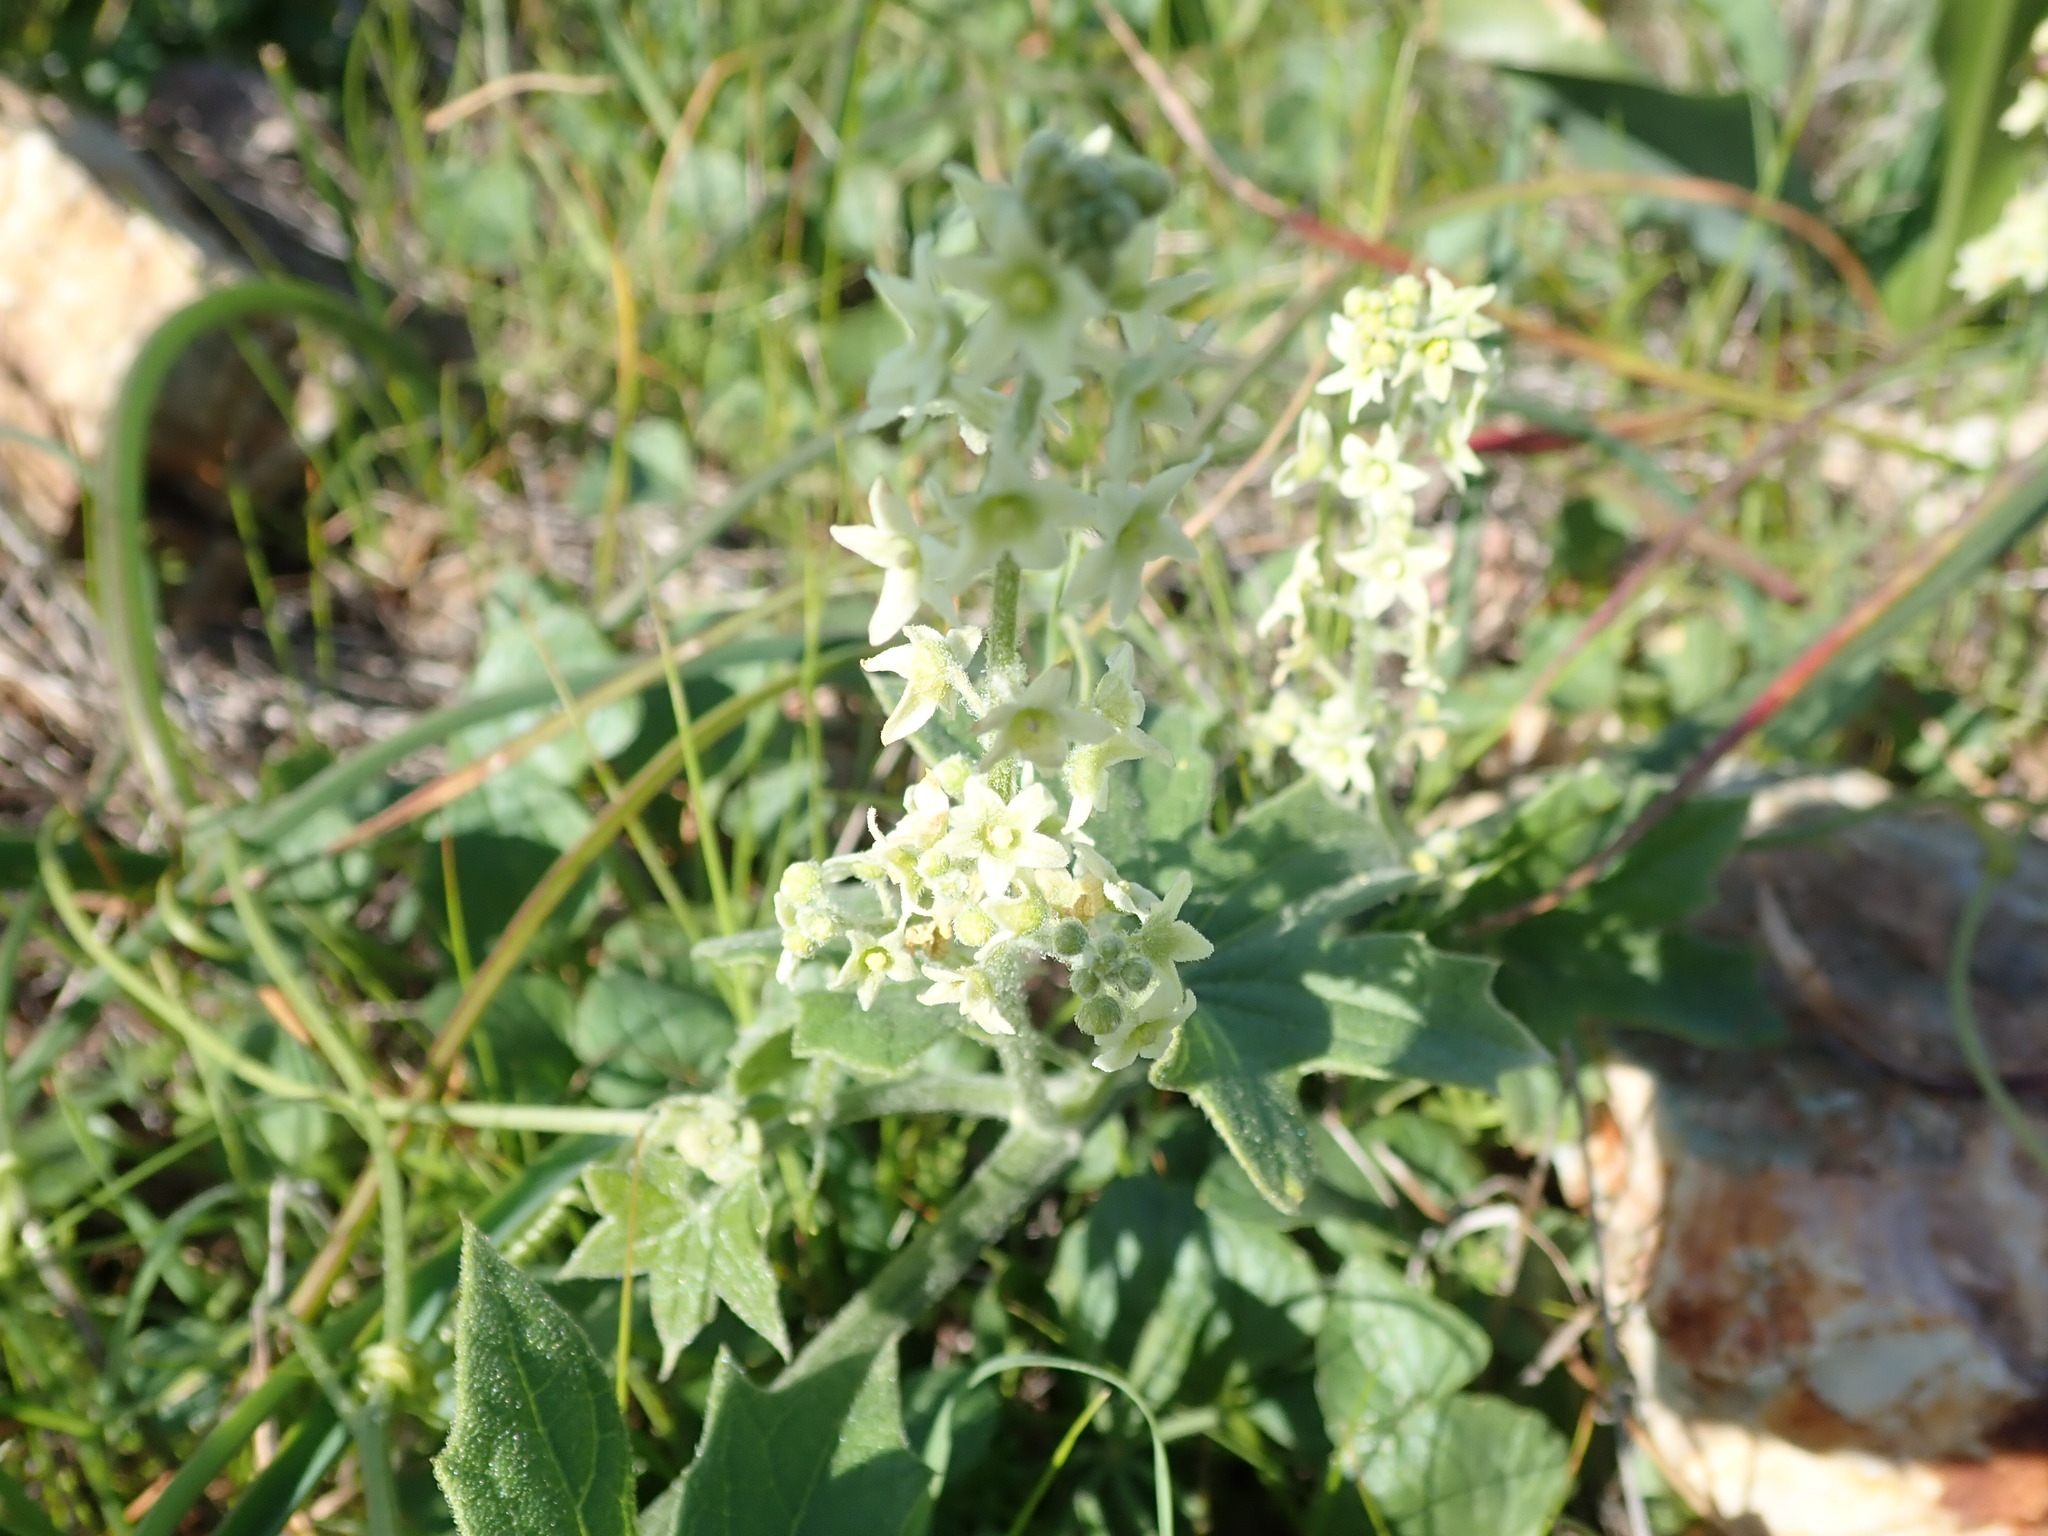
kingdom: Plantae
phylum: Tracheophyta
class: Magnoliopsida
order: Cucurbitales
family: Cucurbitaceae
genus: Marah
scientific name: Marah fabacea
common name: California manroot
